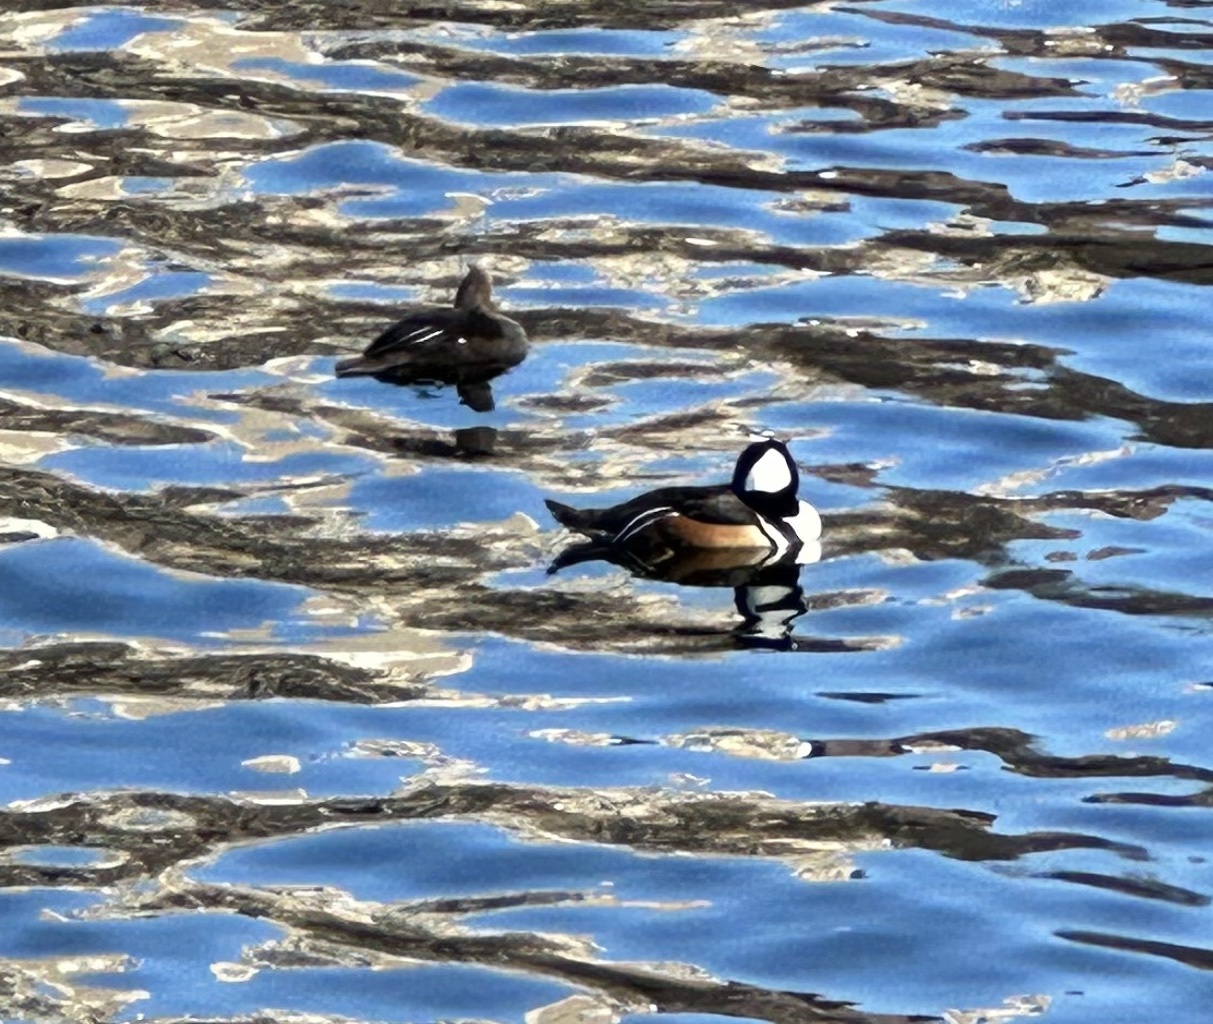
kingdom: Animalia
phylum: Chordata
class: Aves
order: Anseriformes
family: Anatidae
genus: Lophodytes
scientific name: Lophodytes cucullatus
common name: Hooded merganser
